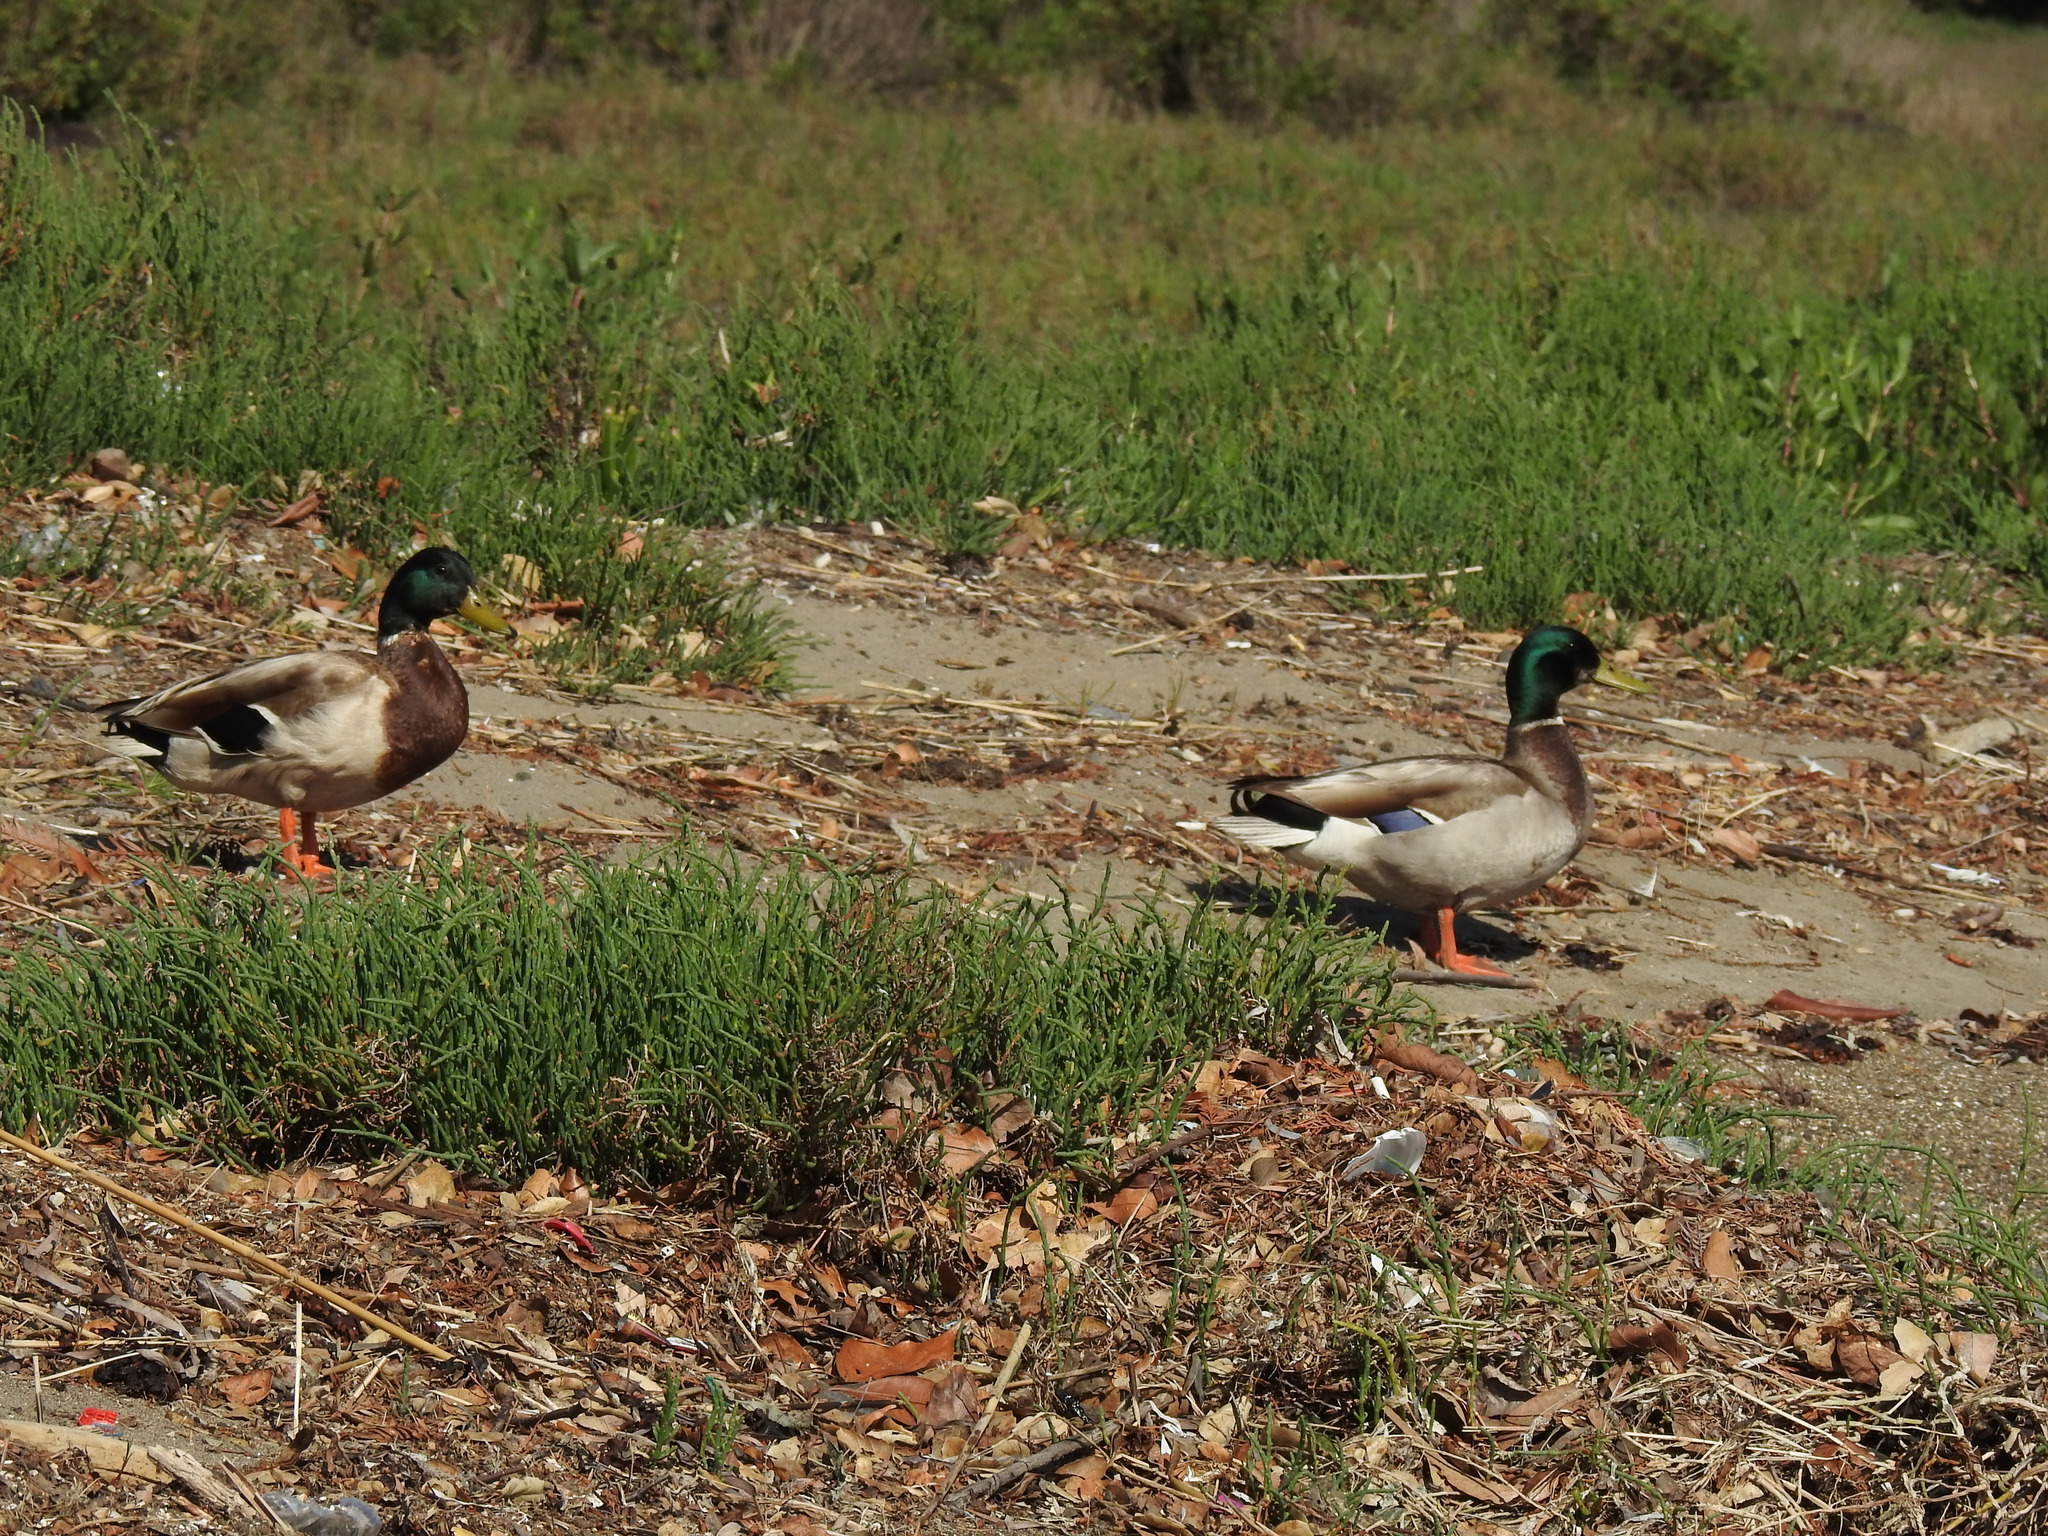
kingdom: Animalia
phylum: Chordata
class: Aves
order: Anseriformes
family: Anatidae
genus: Anas
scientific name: Anas platyrhynchos
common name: Mallard
